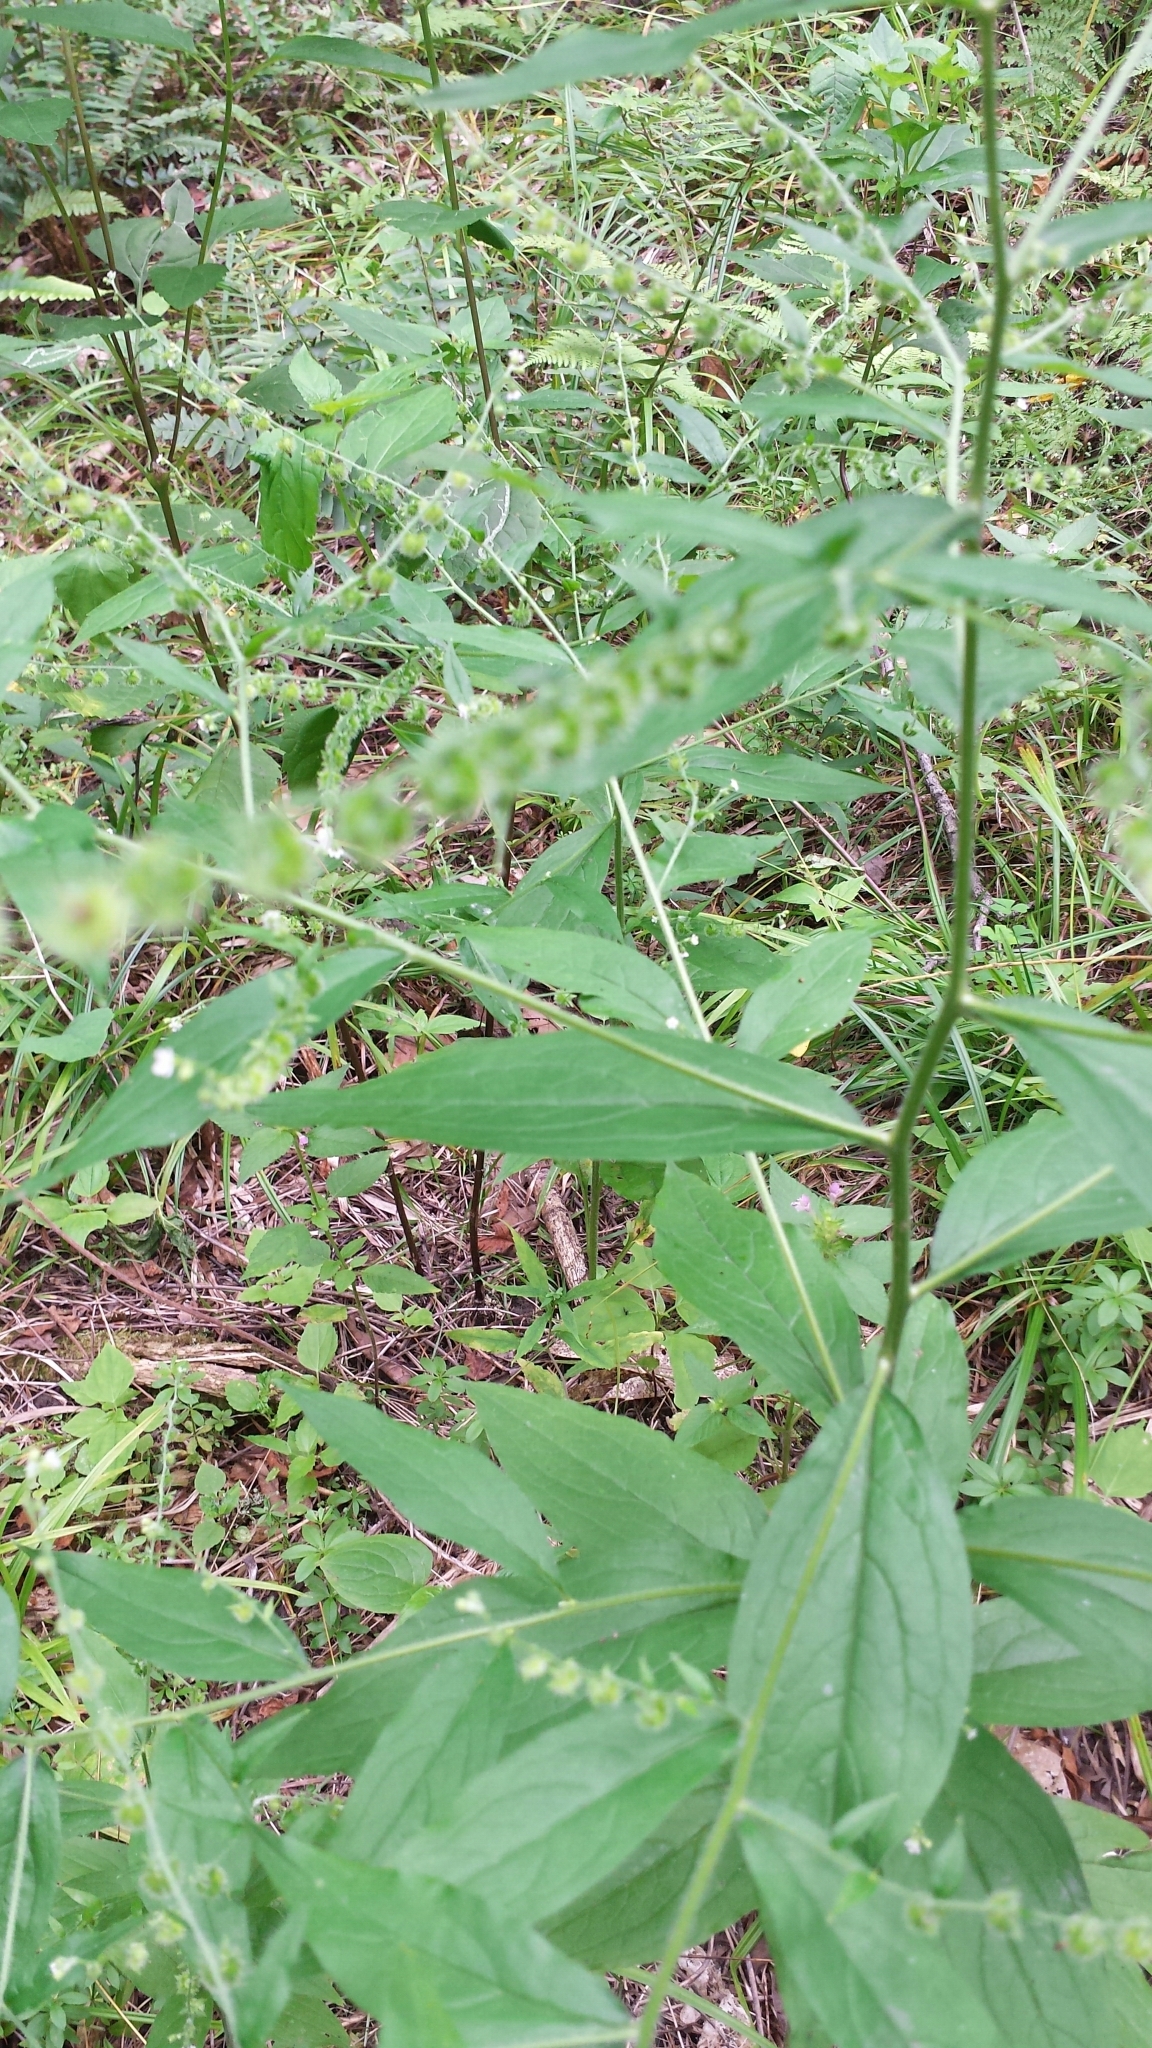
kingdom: Plantae
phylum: Tracheophyta
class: Magnoliopsida
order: Boraginales
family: Boraginaceae
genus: Hackelia
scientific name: Hackelia virginiana
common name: Beggar's-lice
